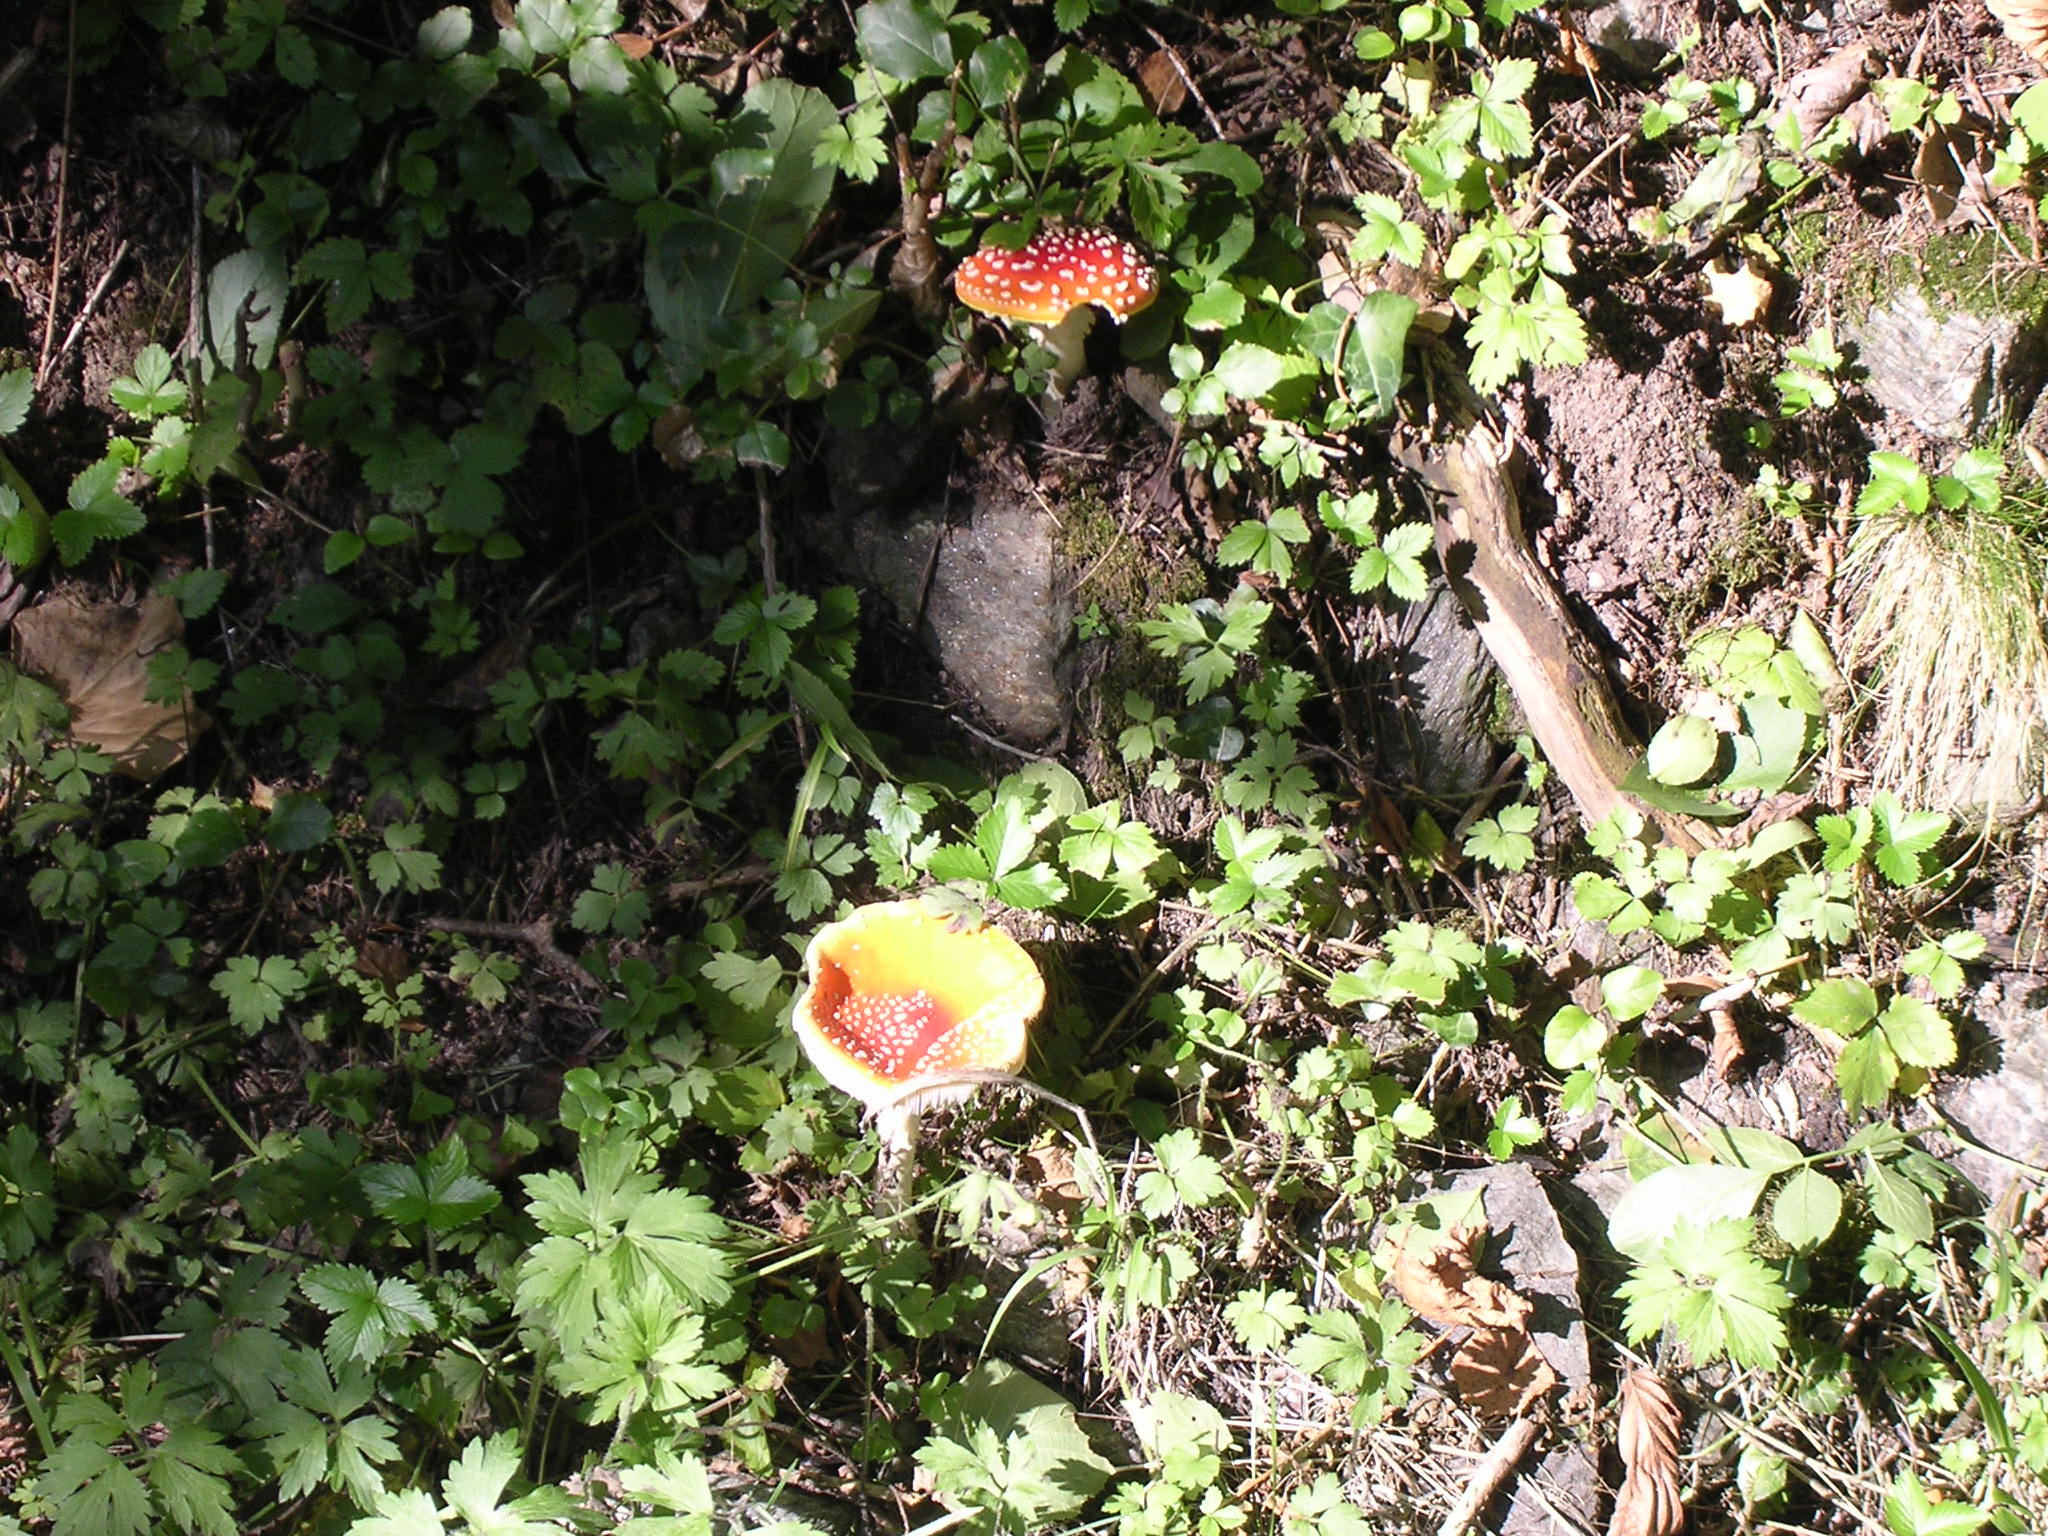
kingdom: Fungi
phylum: Basidiomycota
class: Agaricomycetes
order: Agaricales
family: Amanitaceae
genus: Amanita
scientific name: Amanita muscaria
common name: Fly agaric
